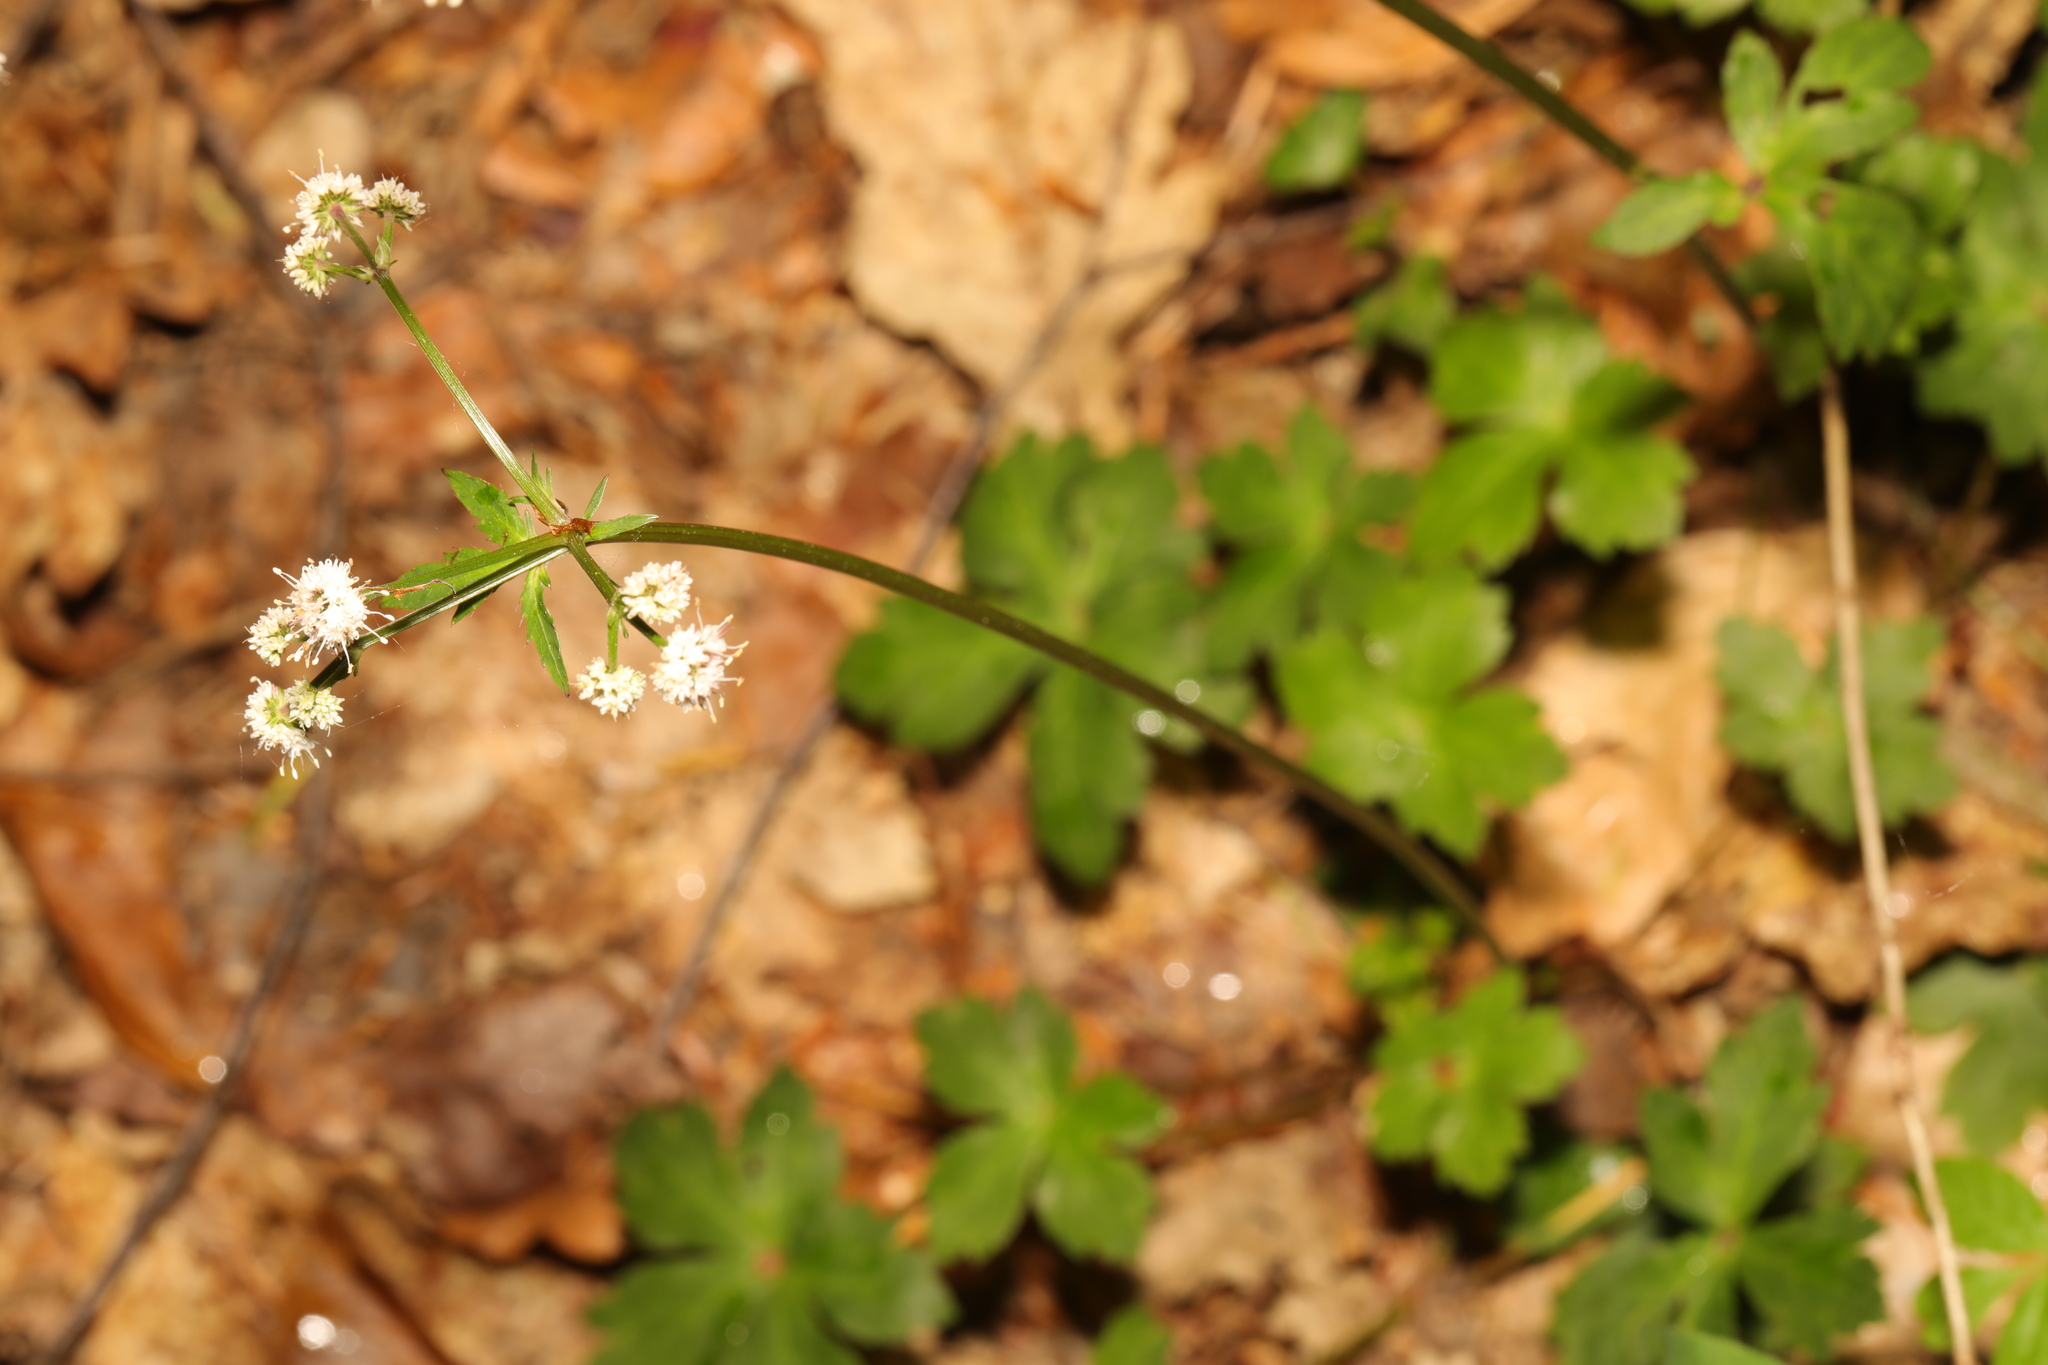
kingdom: Plantae
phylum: Tracheophyta
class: Magnoliopsida
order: Apiales
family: Apiaceae
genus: Sanicula
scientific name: Sanicula europaea
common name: Sanicle
